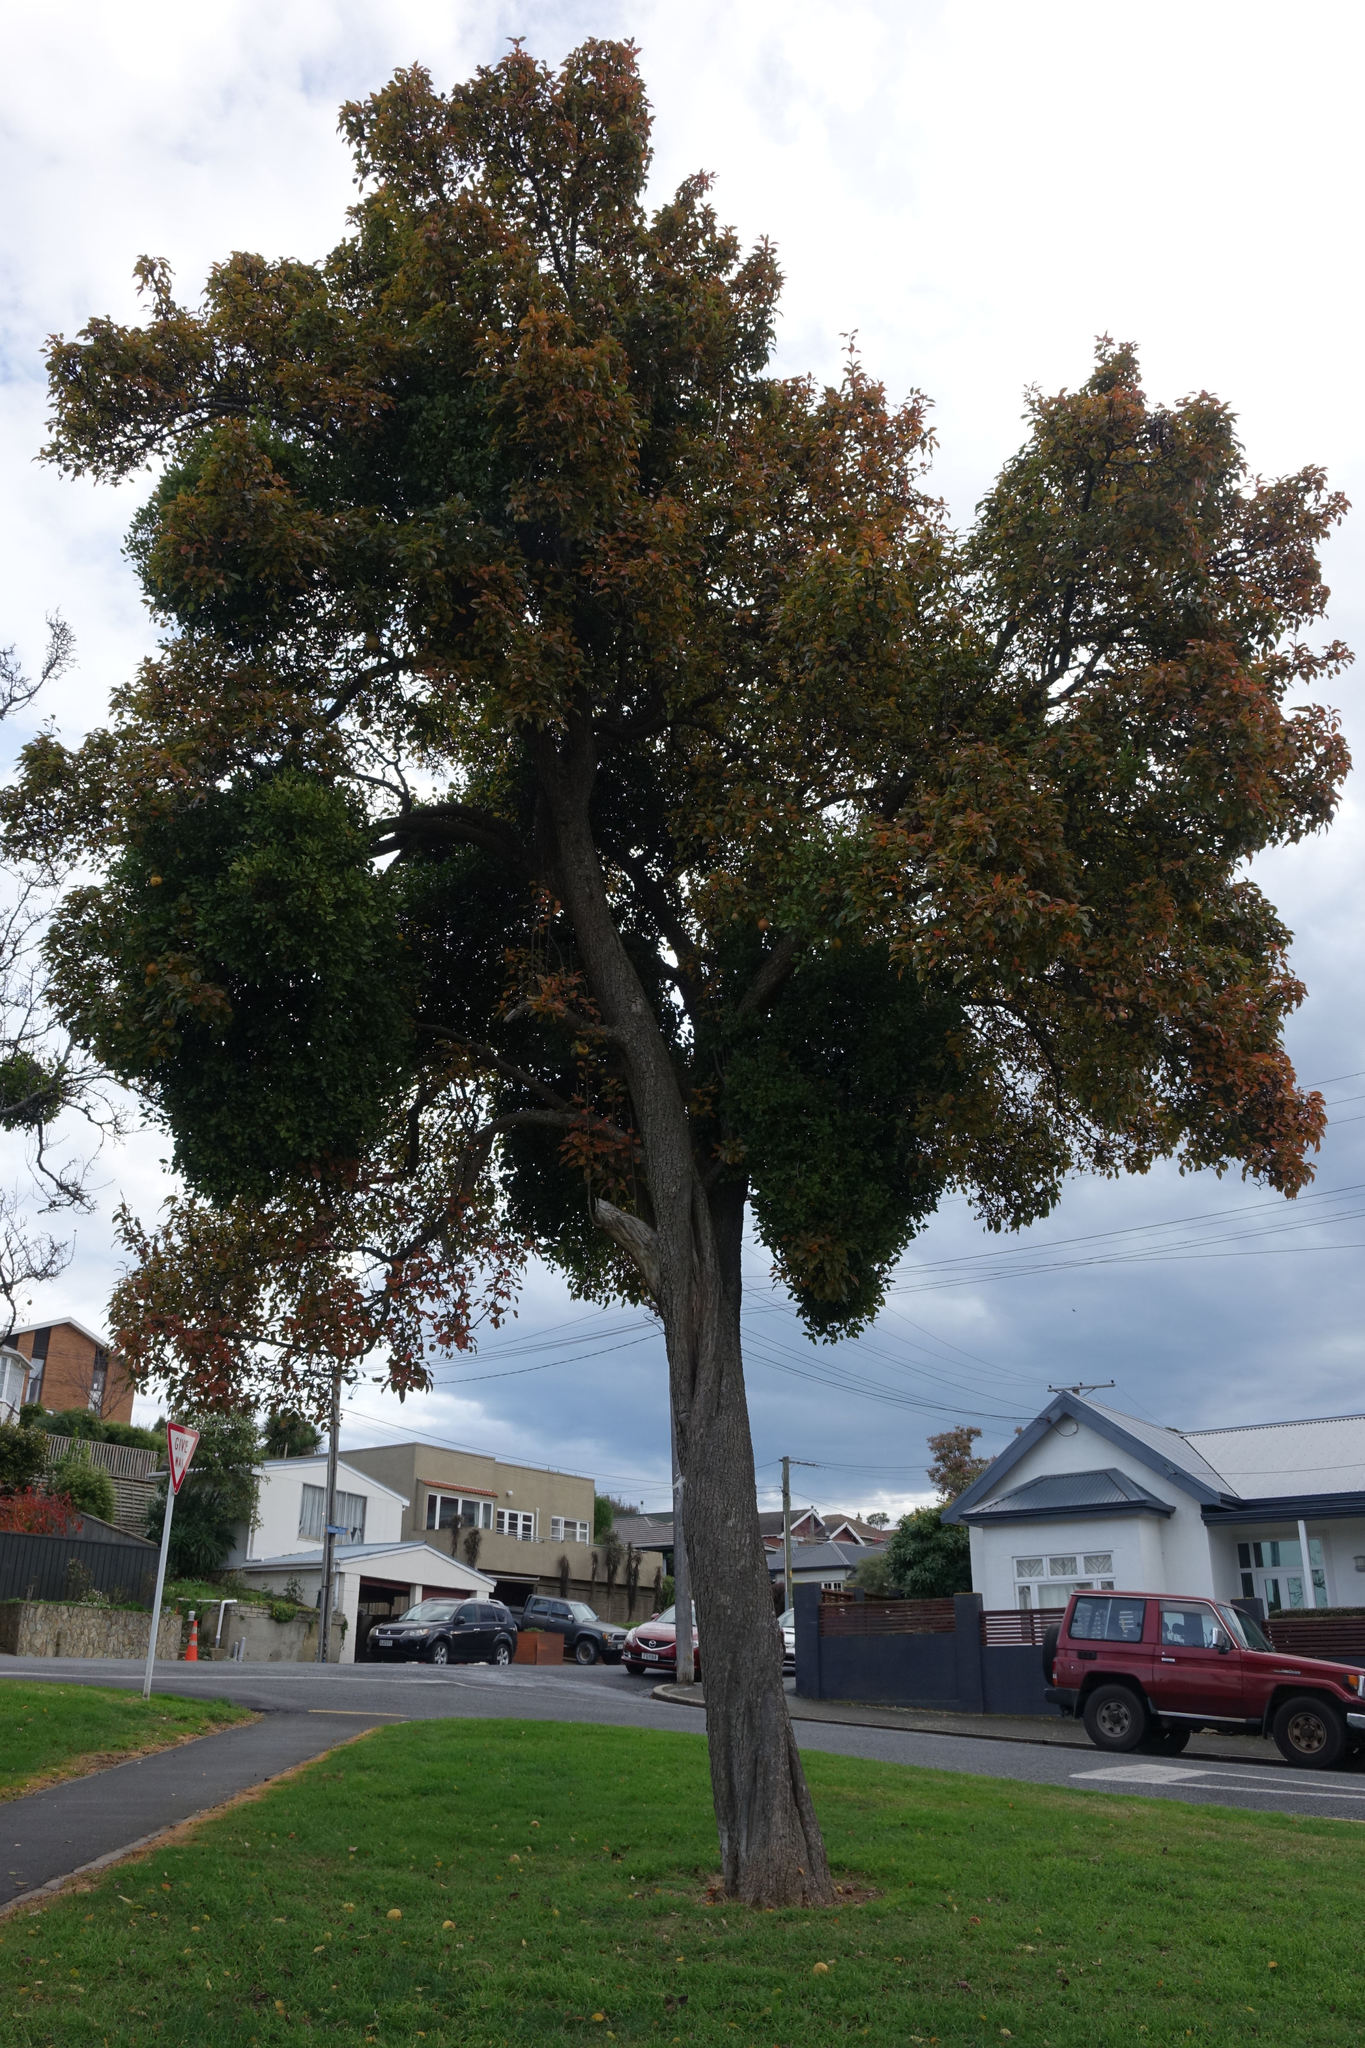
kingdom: Plantae
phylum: Tracheophyta
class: Magnoliopsida
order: Santalales
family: Loranthaceae
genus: Ileostylus
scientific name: Ileostylus micranthus
